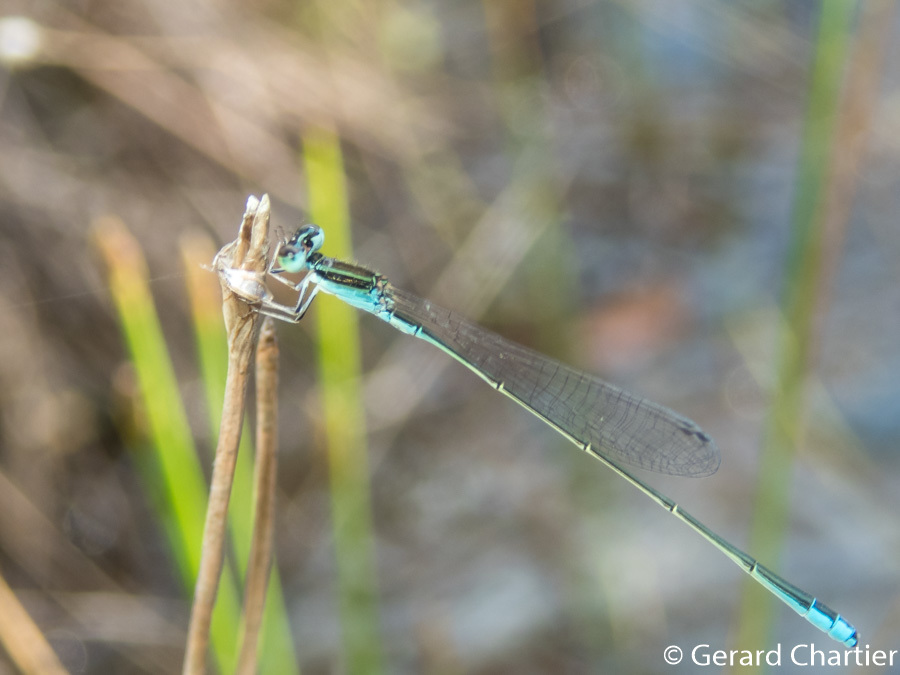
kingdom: Animalia
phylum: Arthropoda
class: Insecta
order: Odonata
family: Coenagrionidae
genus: Aciagrion
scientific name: Aciagrion borneense
